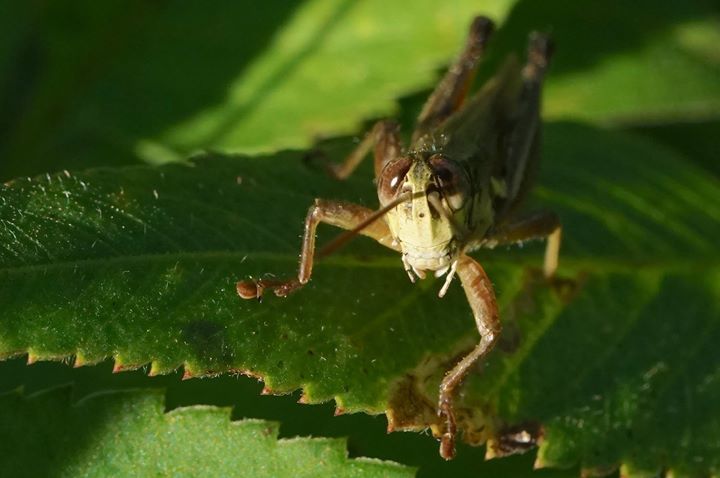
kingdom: Animalia
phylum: Arthropoda
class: Insecta
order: Orthoptera
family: Acrididae
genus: Paroxya
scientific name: Paroxya atlantica
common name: Atlantic grasshopper
